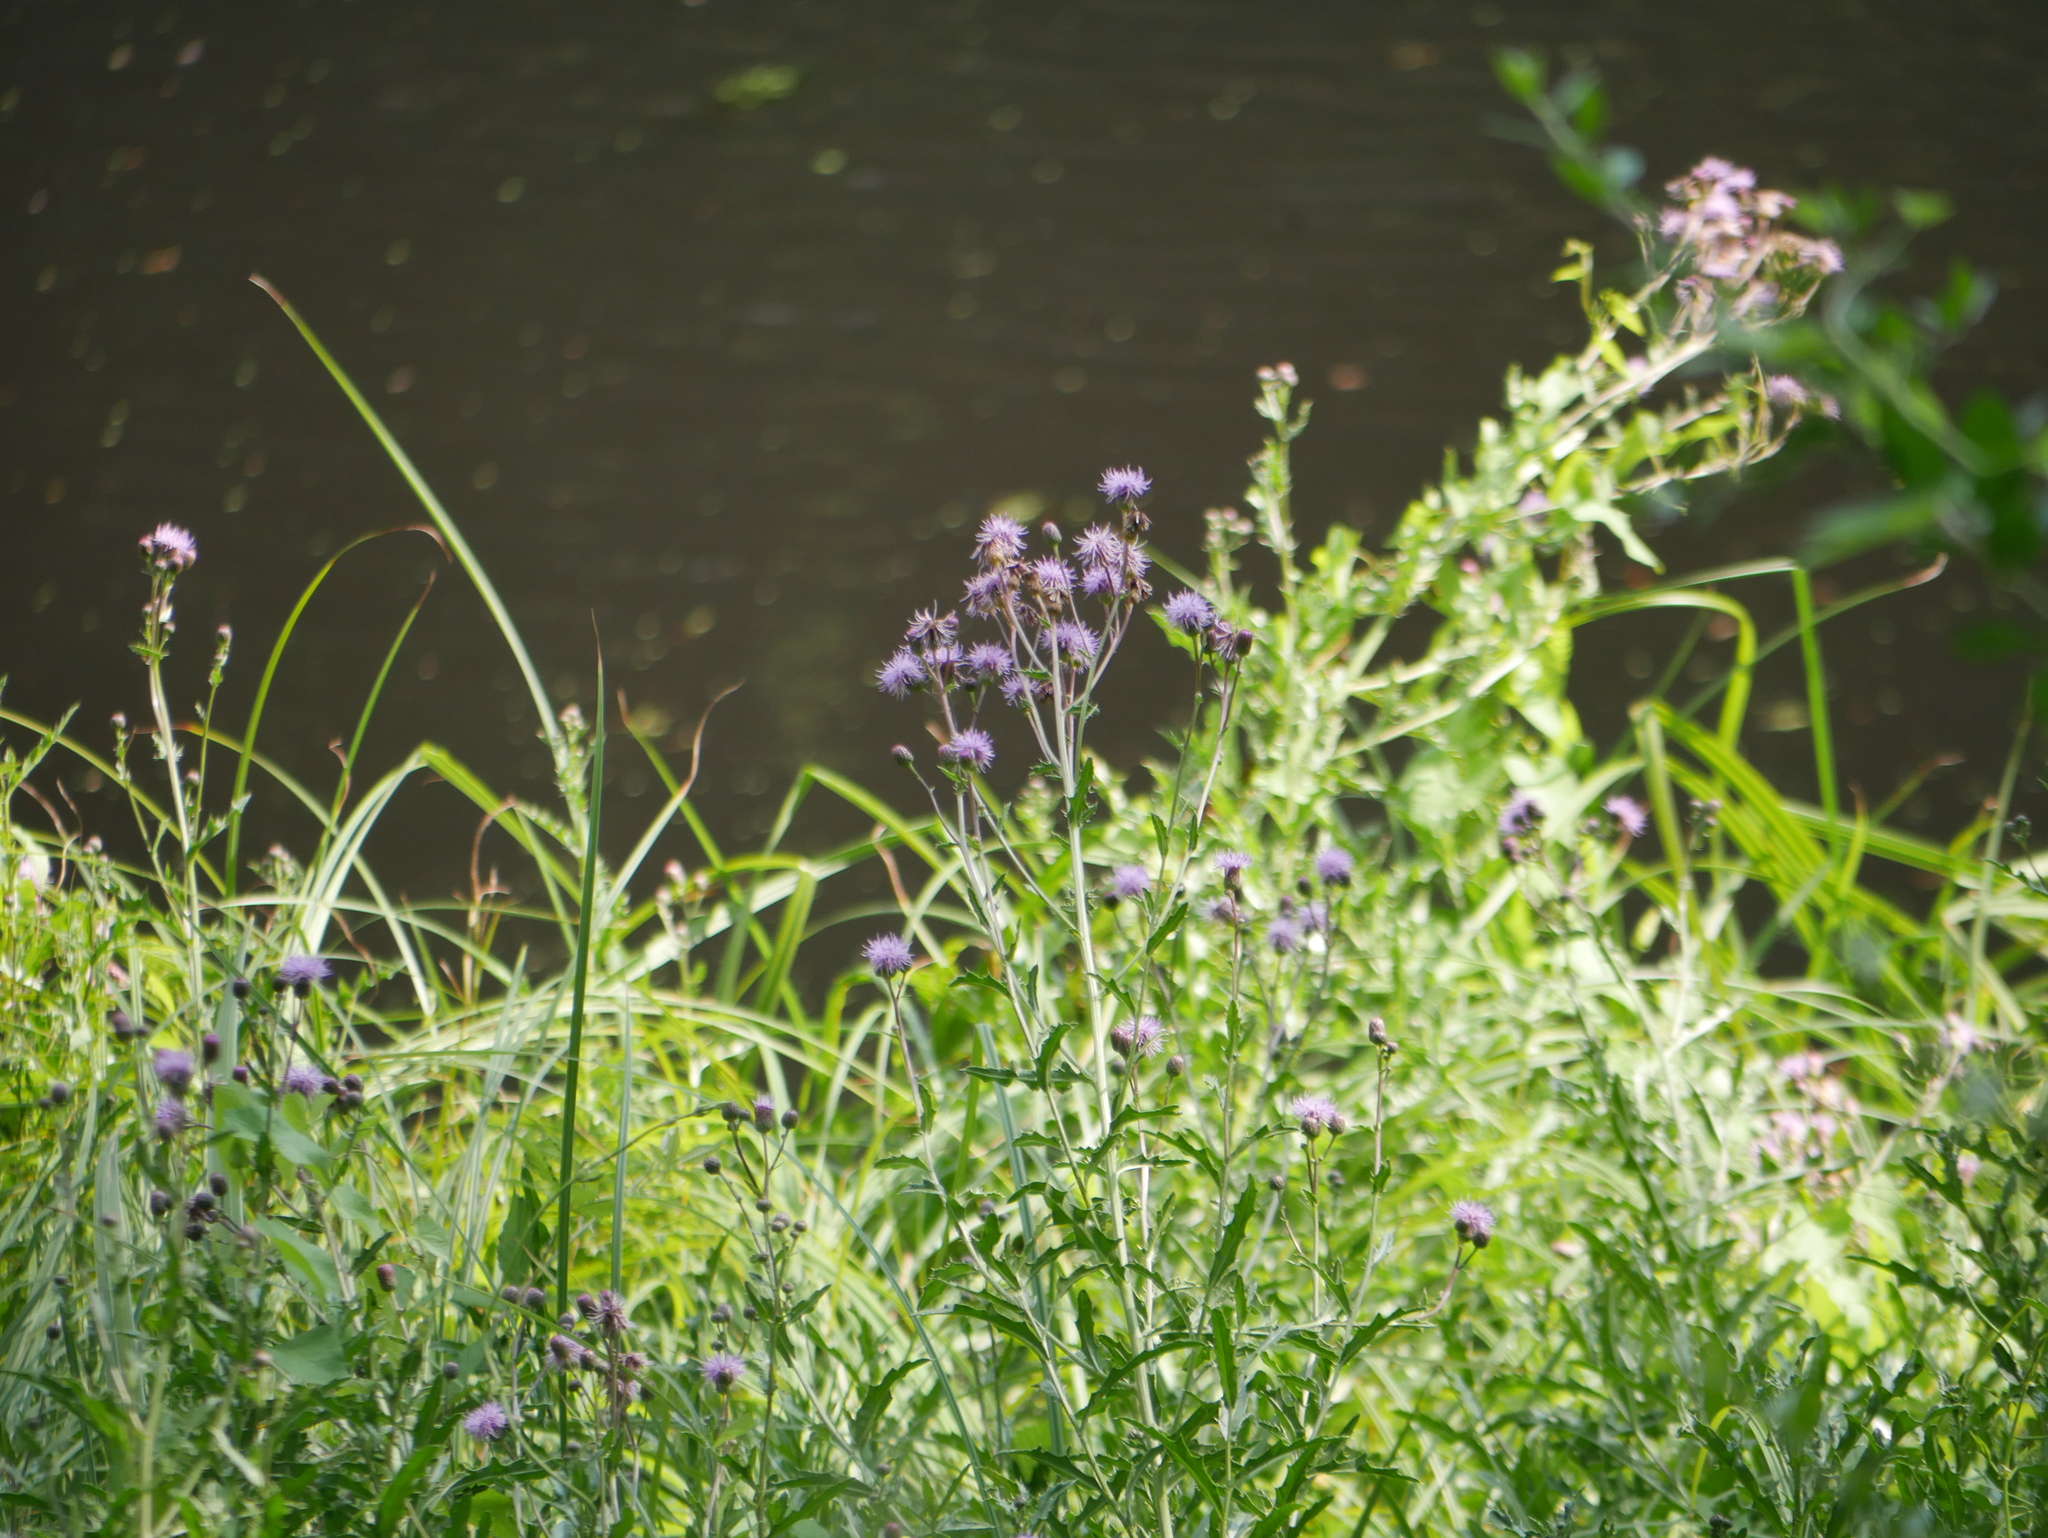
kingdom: Plantae
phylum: Tracheophyta
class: Magnoliopsida
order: Asterales
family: Asteraceae
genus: Cirsium
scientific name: Cirsium arvense
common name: Creeping thistle
